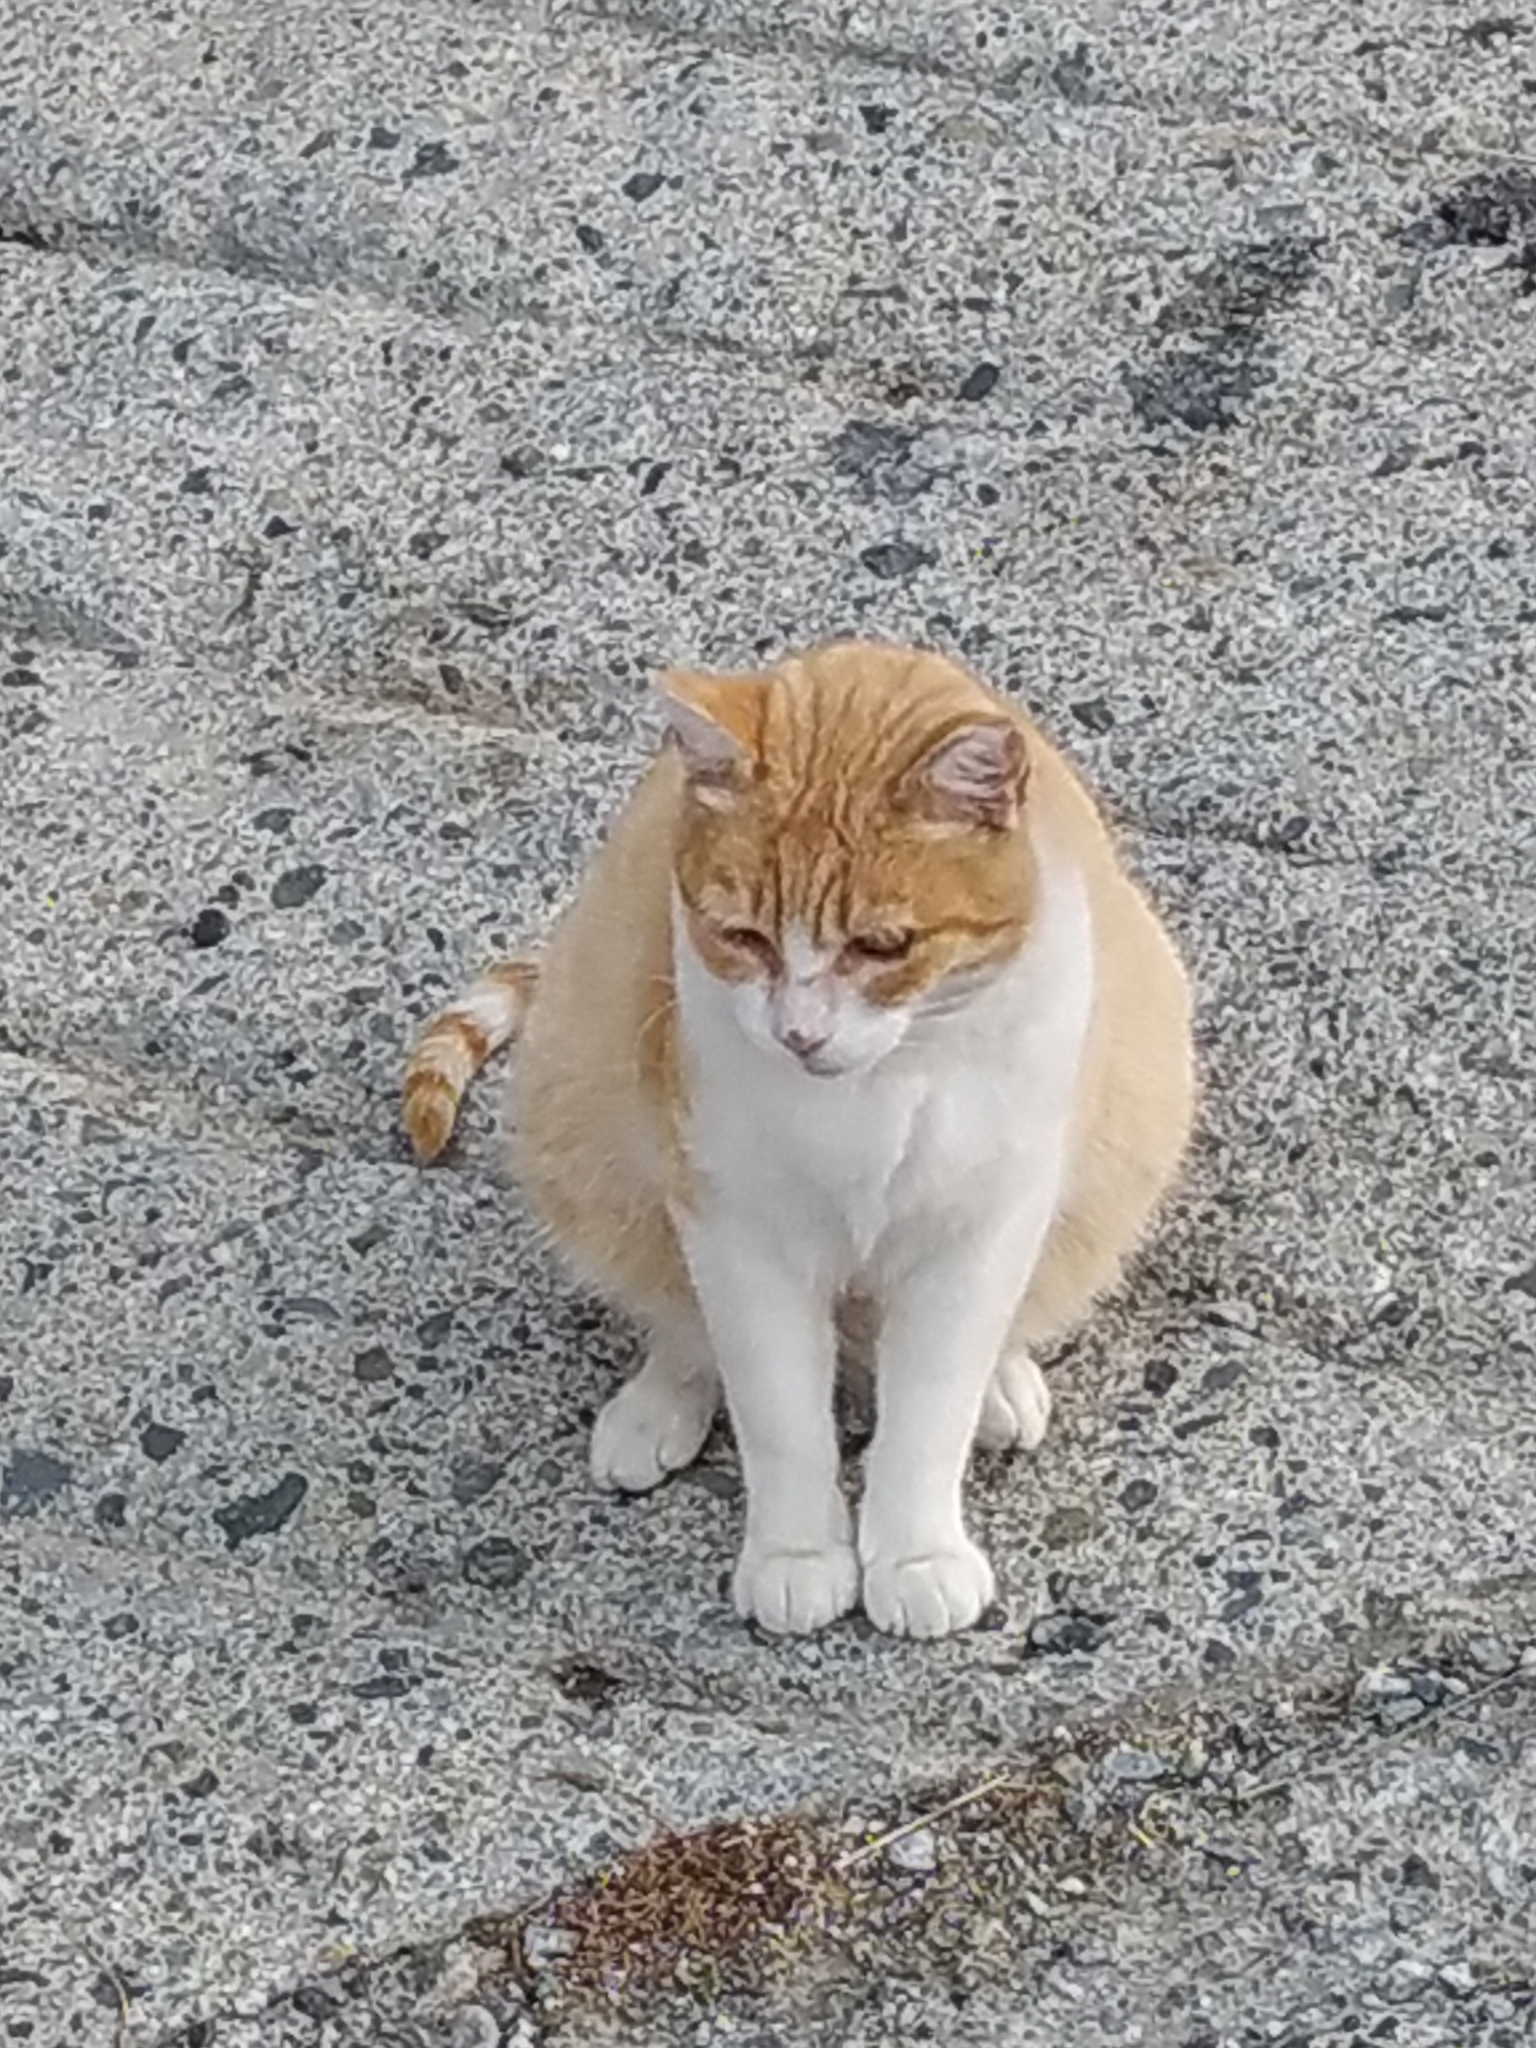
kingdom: Animalia
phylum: Chordata
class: Mammalia
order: Carnivora
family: Felidae
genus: Felis
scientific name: Felis catus
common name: Domestic cat
